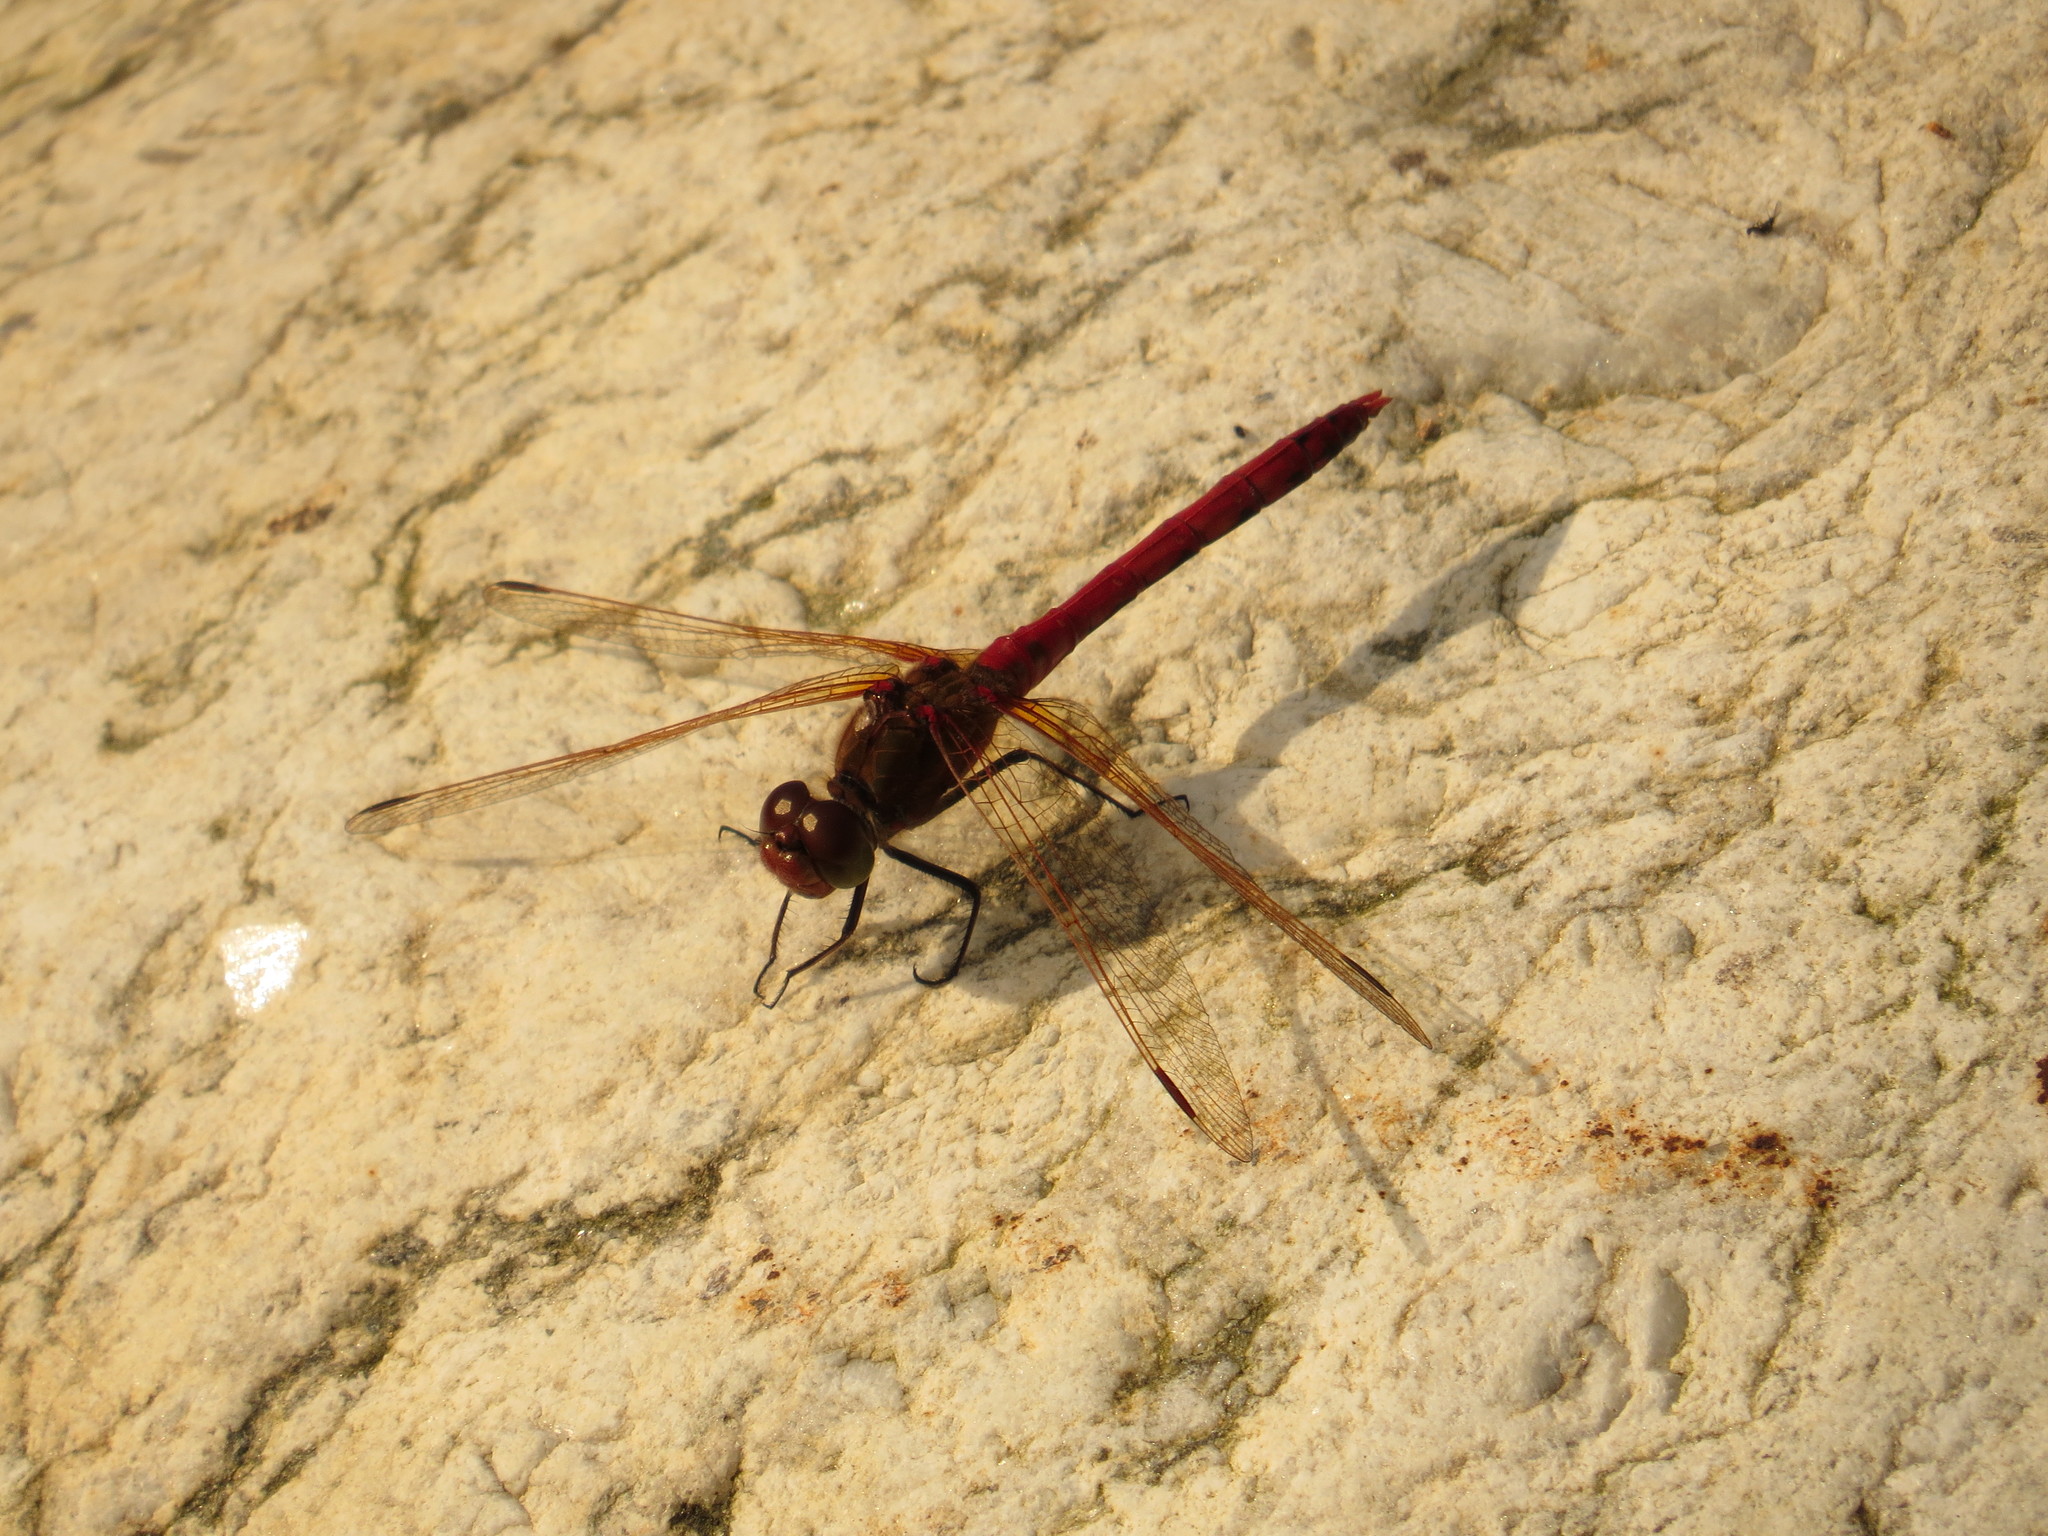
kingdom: Animalia
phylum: Arthropoda
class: Insecta
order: Odonata
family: Libellulidae
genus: Sympetrum
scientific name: Sympetrum striolatum
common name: Common darter
